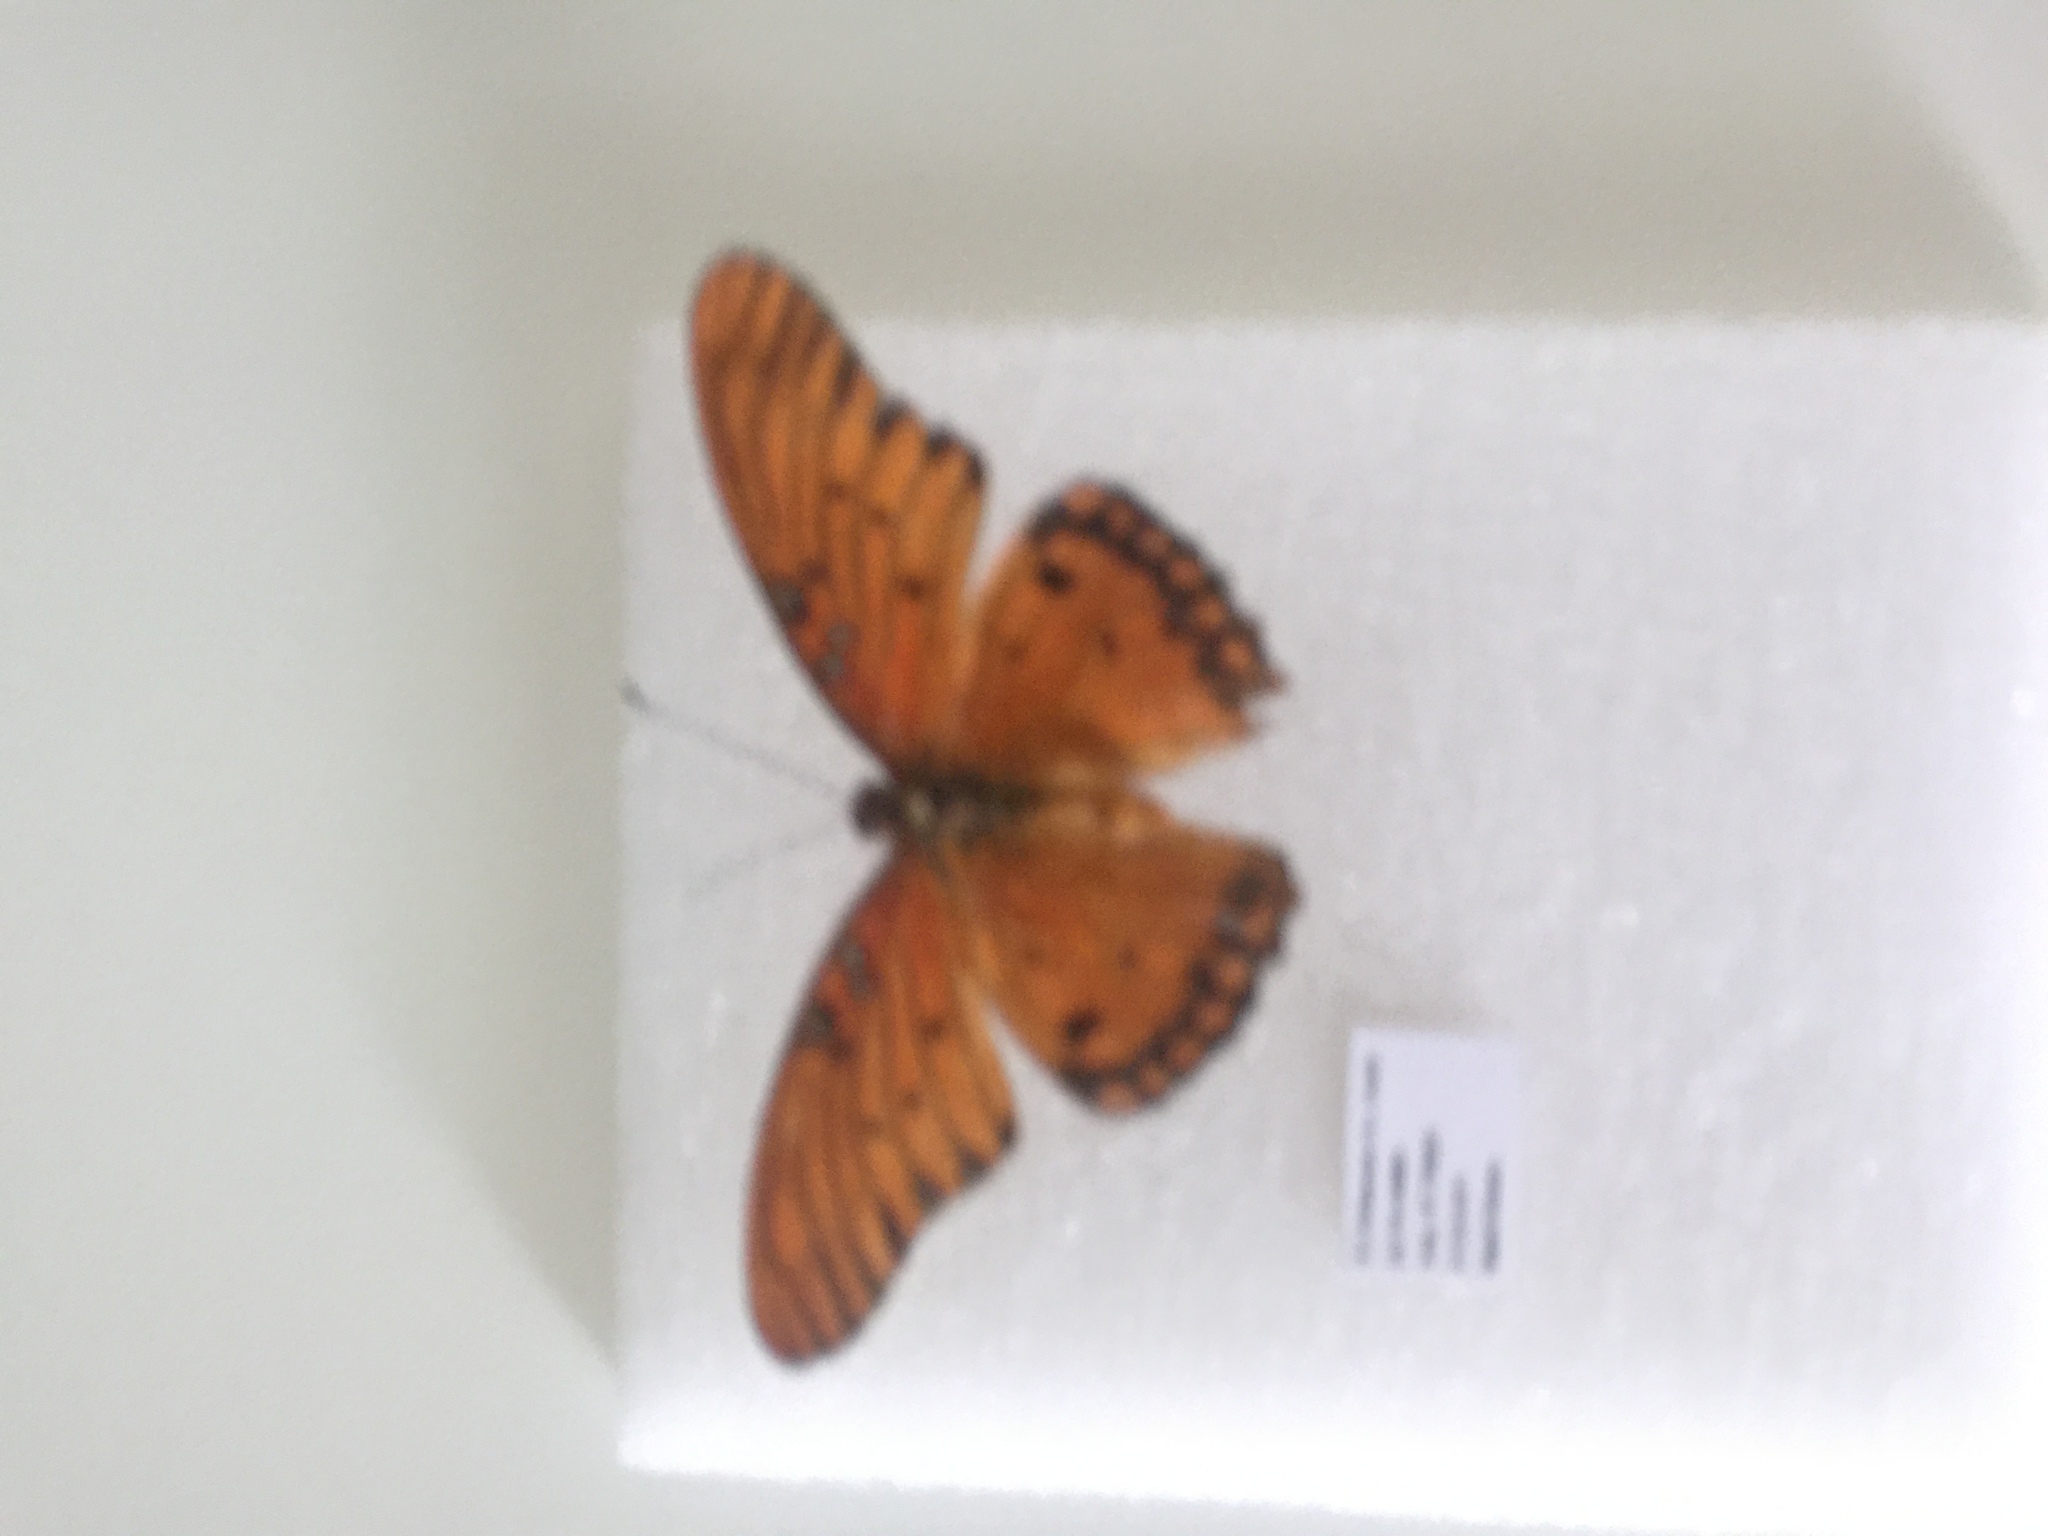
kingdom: Animalia
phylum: Arthropoda
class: Insecta
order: Lepidoptera
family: Nymphalidae
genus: Dione
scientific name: Dione vanillae
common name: Gulf fritillary
